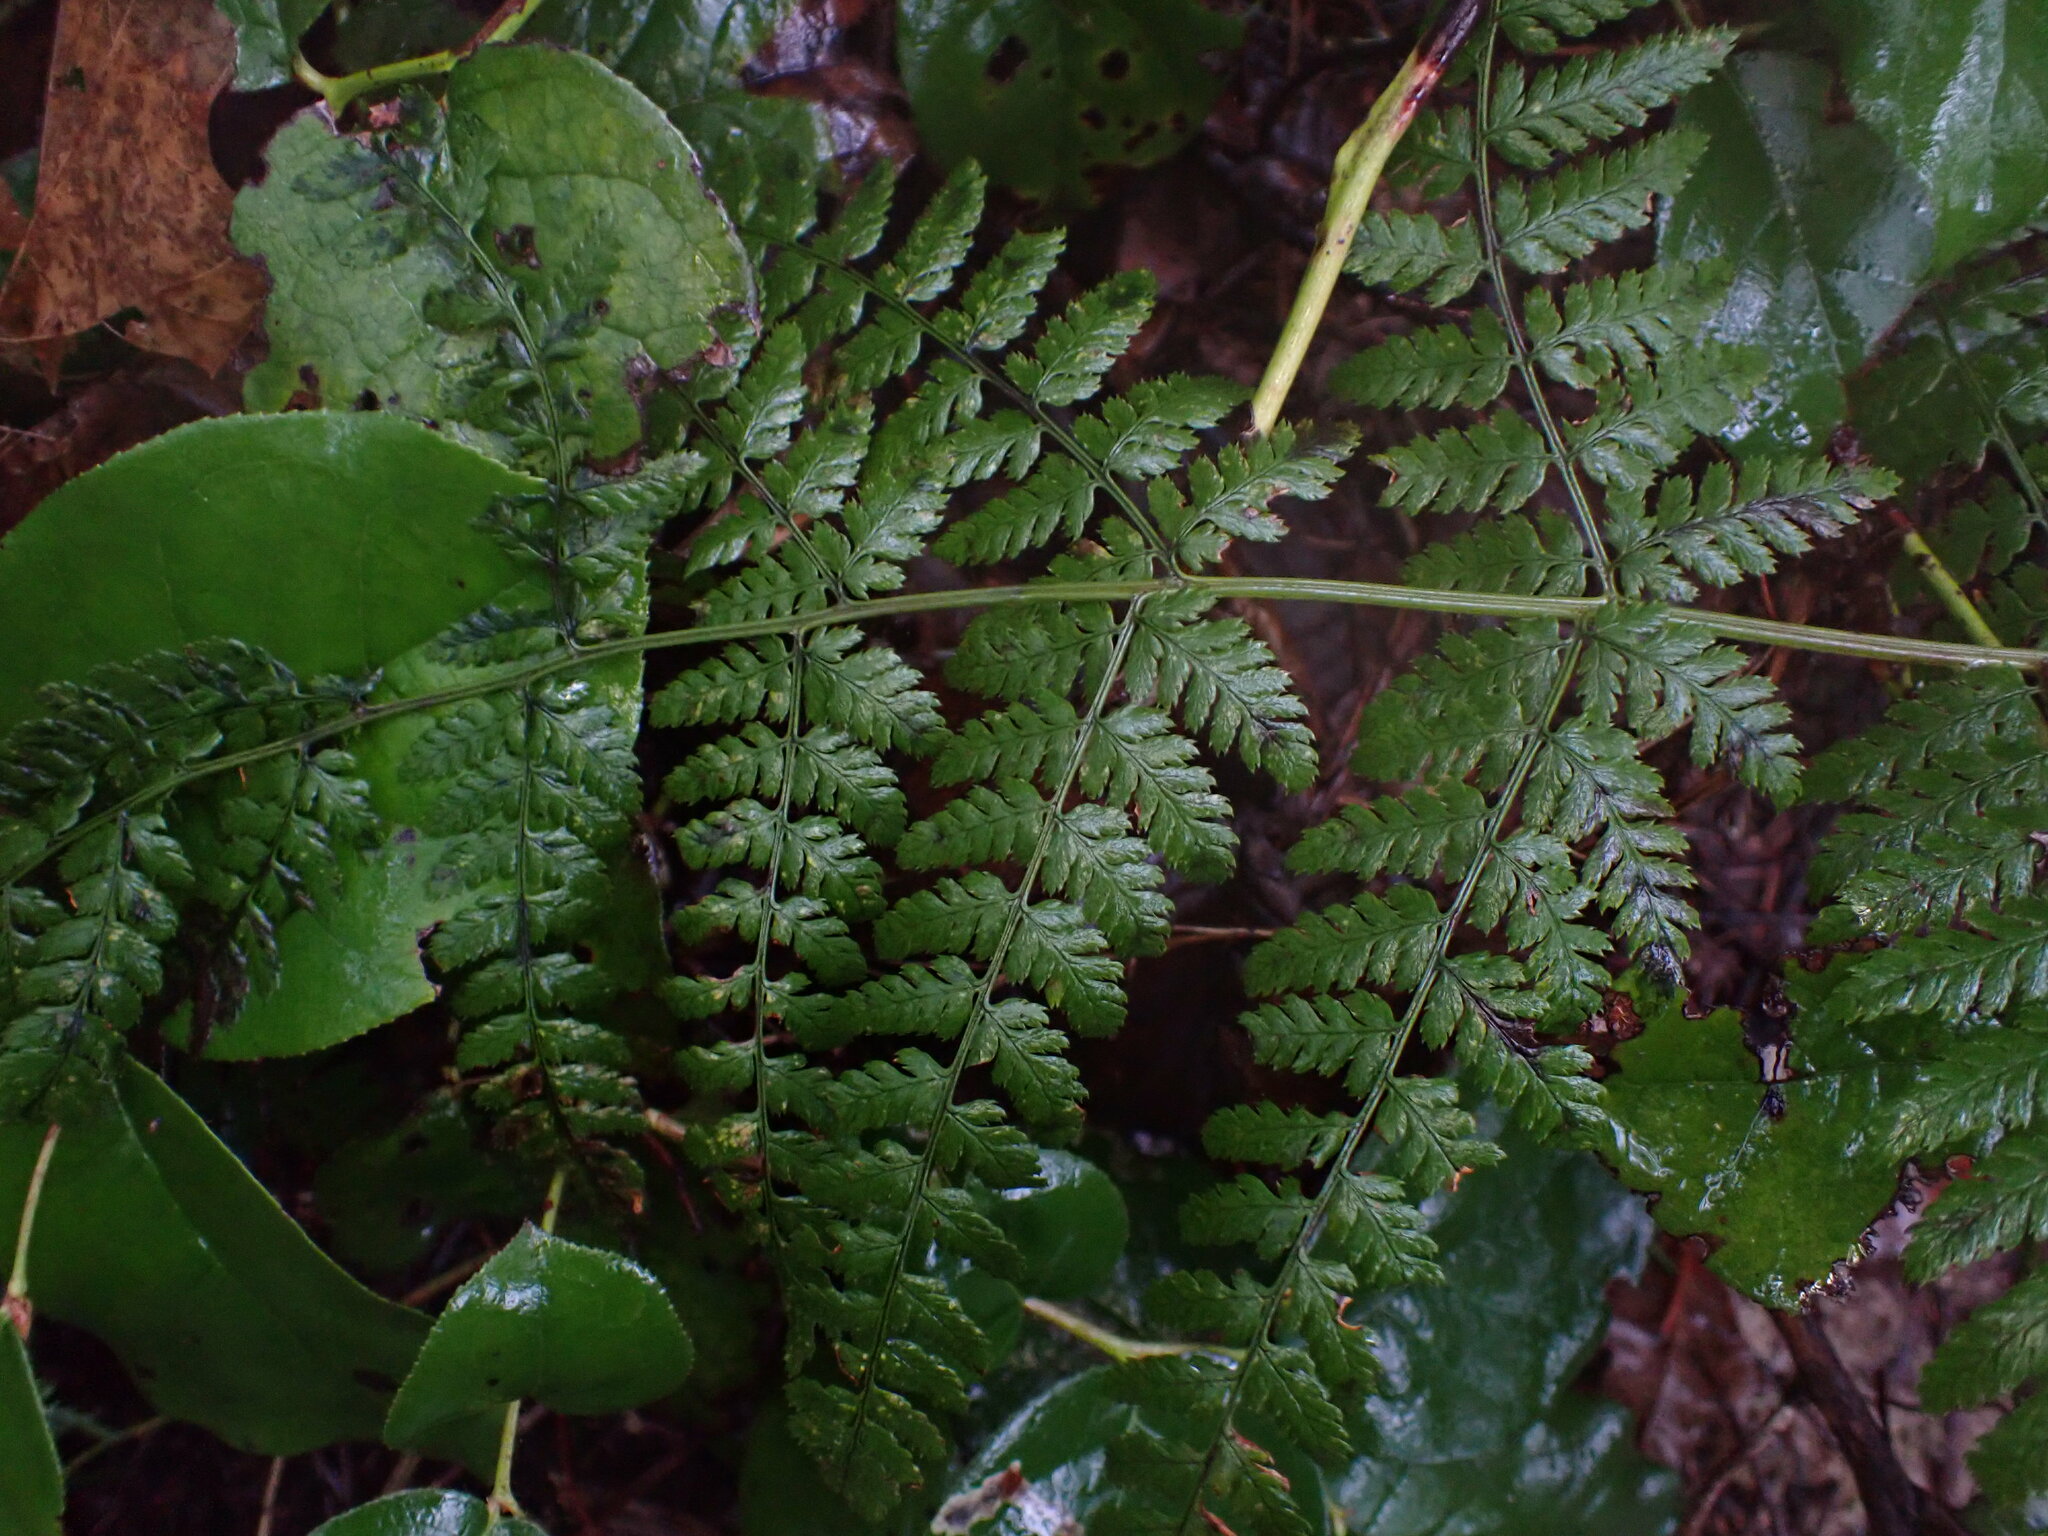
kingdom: Plantae
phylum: Tracheophyta
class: Polypodiopsida
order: Polypodiales
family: Dryopteridaceae
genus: Dryopteris
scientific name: Dryopteris expansa
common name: Northern buckler fern
